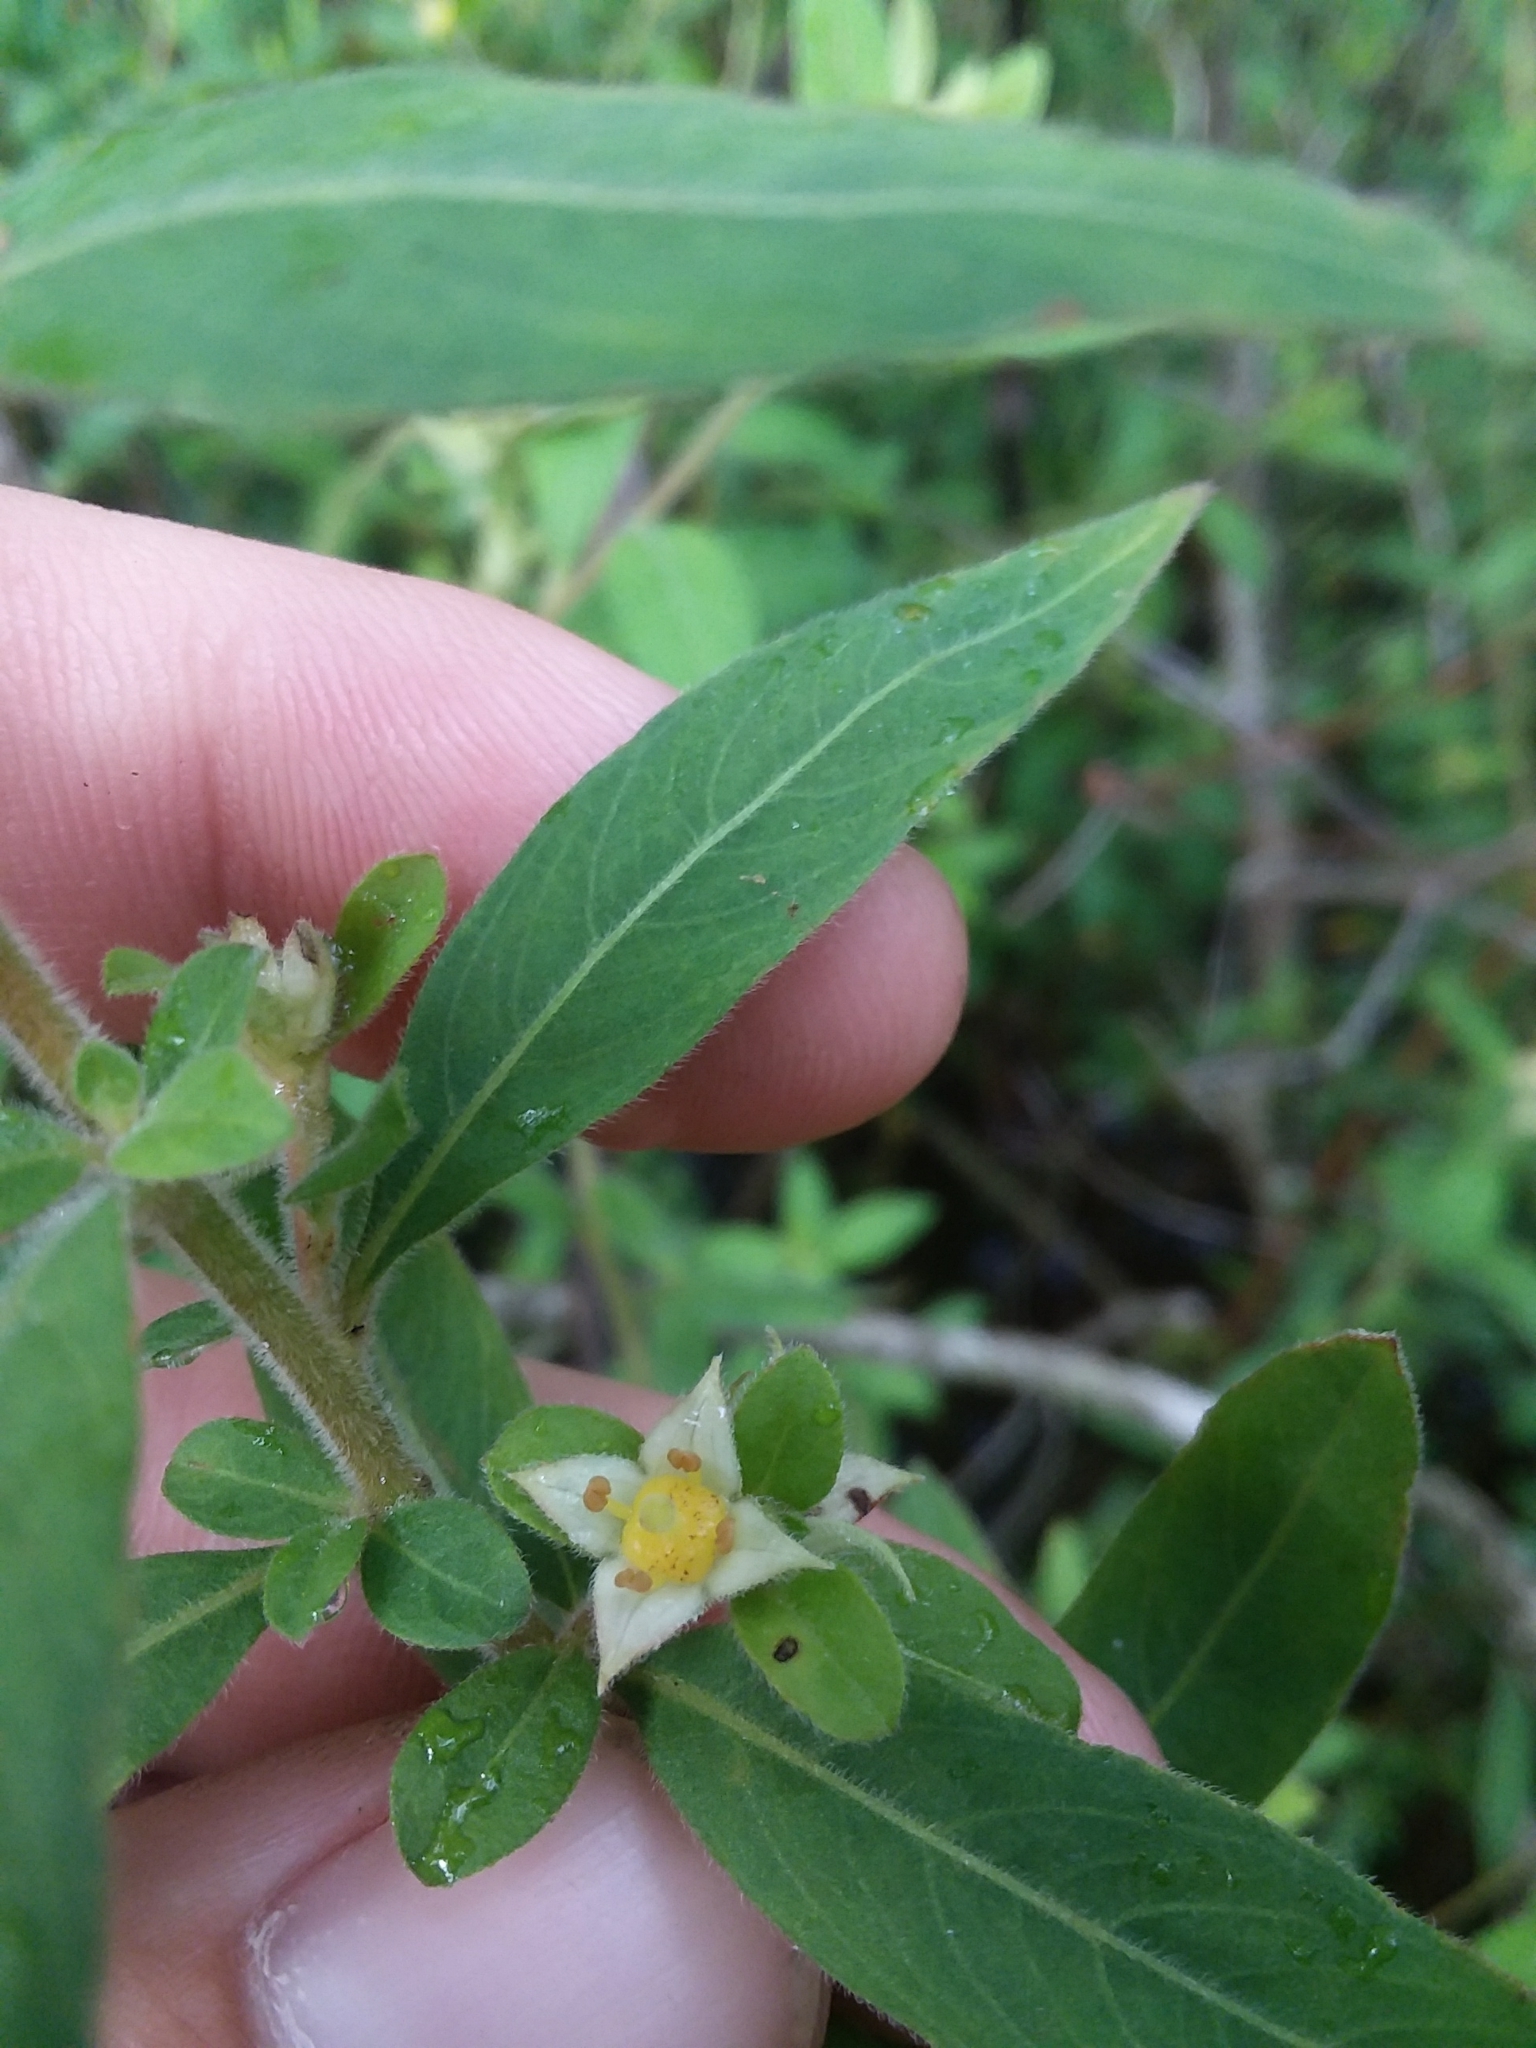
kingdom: Plantae
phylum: Tracheophyta
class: Magnoliopsida
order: Myrtales
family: Onagraceae
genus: Ludwigia
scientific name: Ludwigia pilosa
